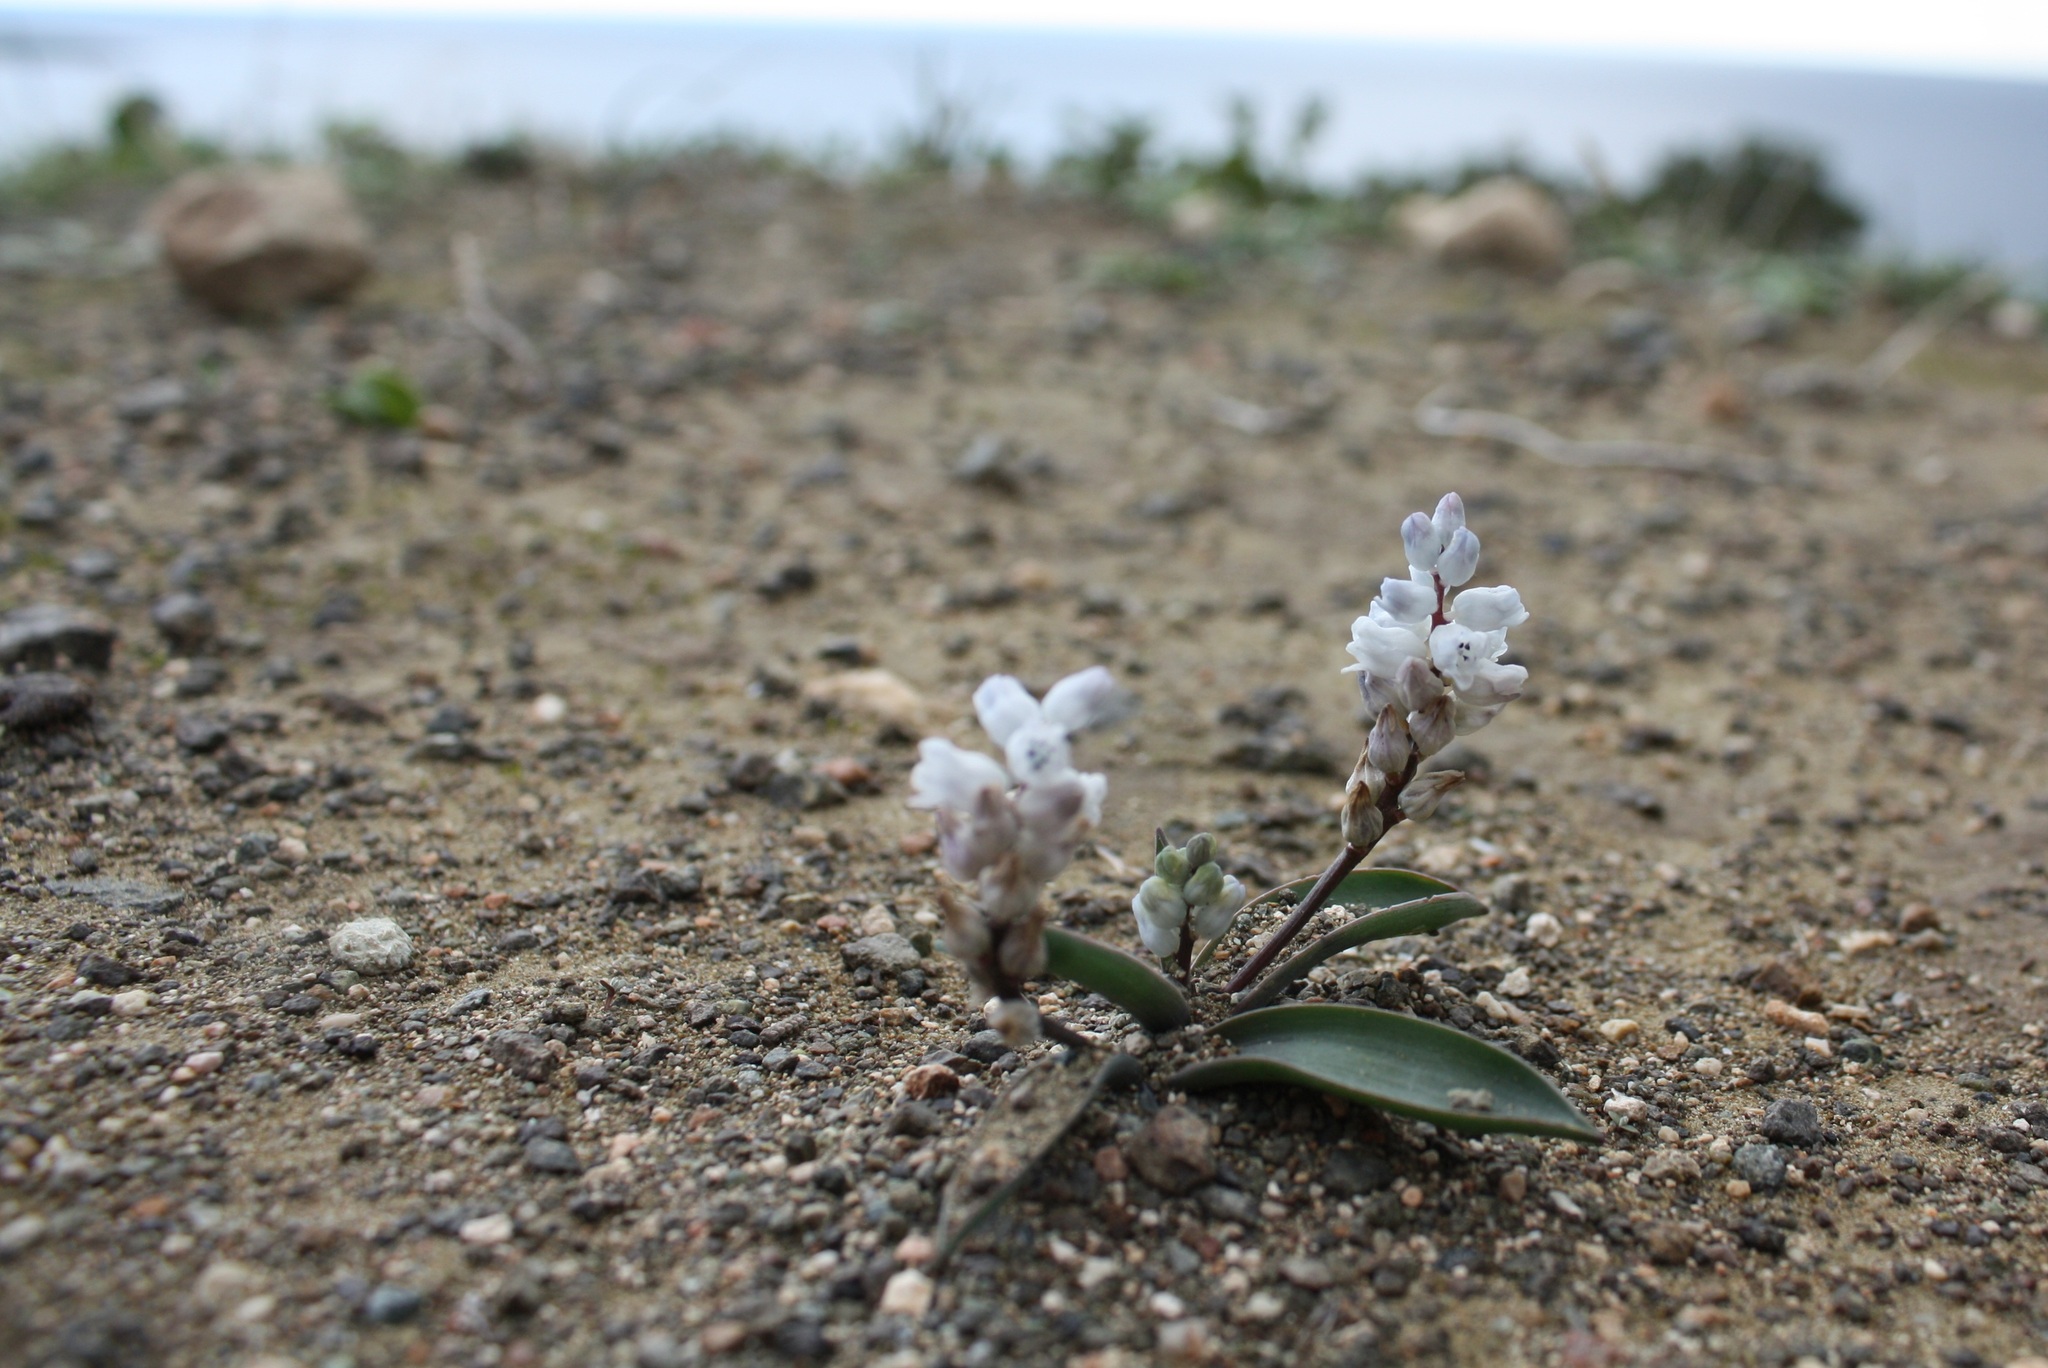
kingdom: Plantae
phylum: Tracheophyta
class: Liliopsida
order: Asparagales
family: Asparagaceae
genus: Hyacinthella
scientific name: Hyacinthella millingenii
